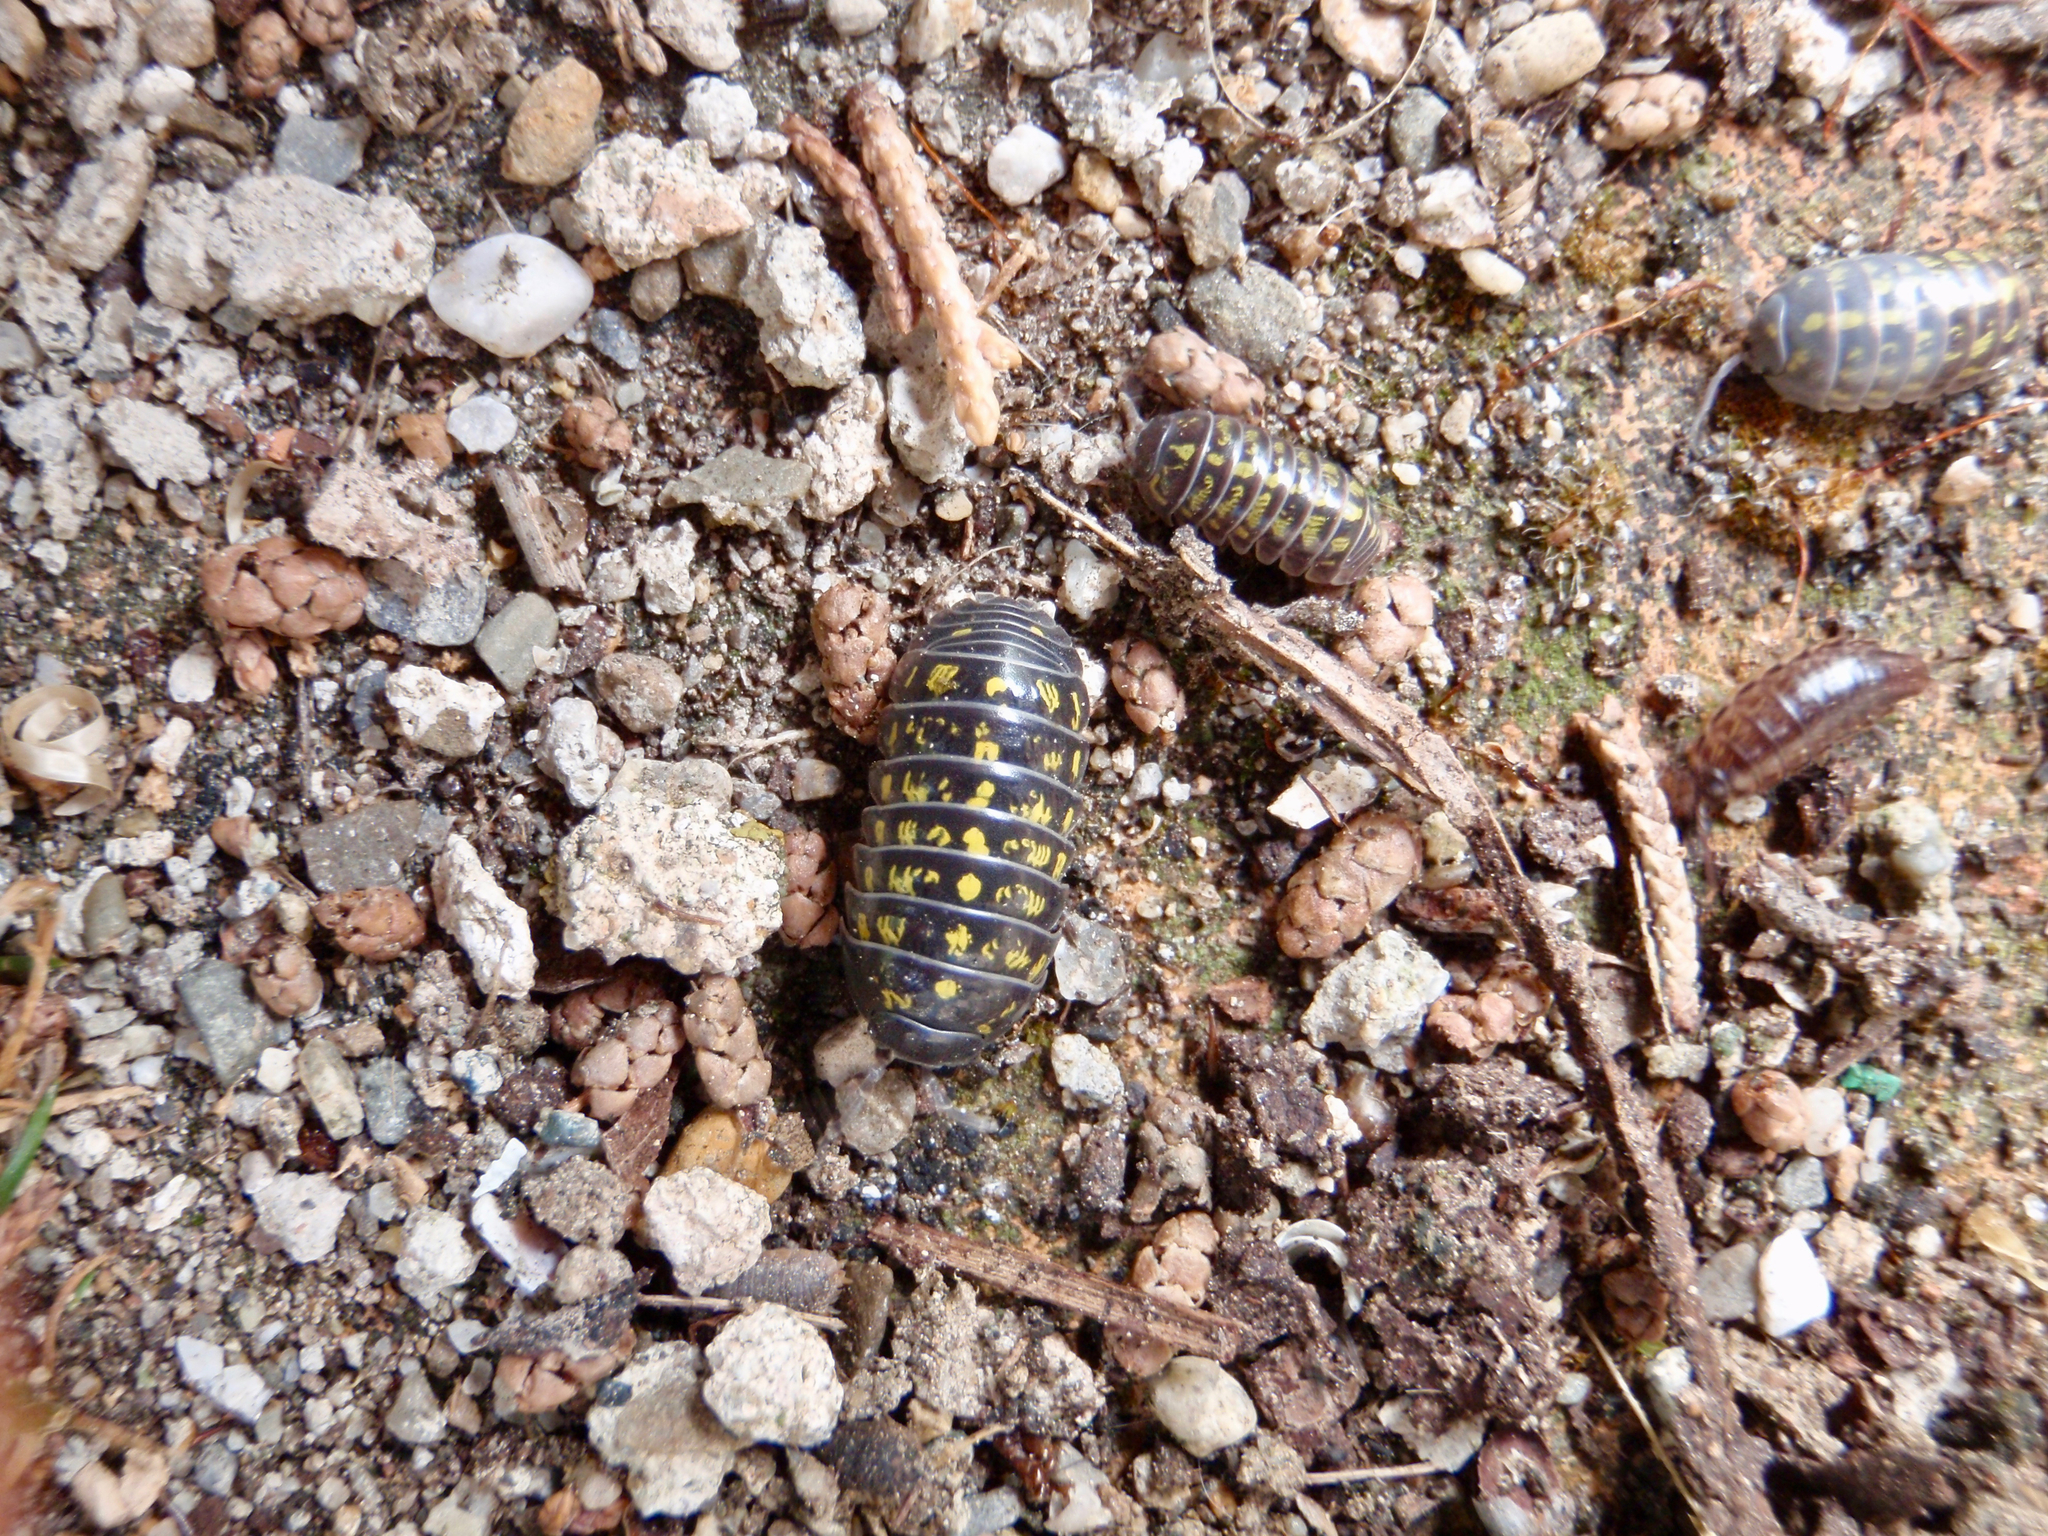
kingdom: Animalia
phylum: Arthropoda
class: Malacostraca
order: Isopoda
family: Armadillidiidae
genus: Armadillidium
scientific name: Armadillidium vulgare
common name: Common pill woodlouse
